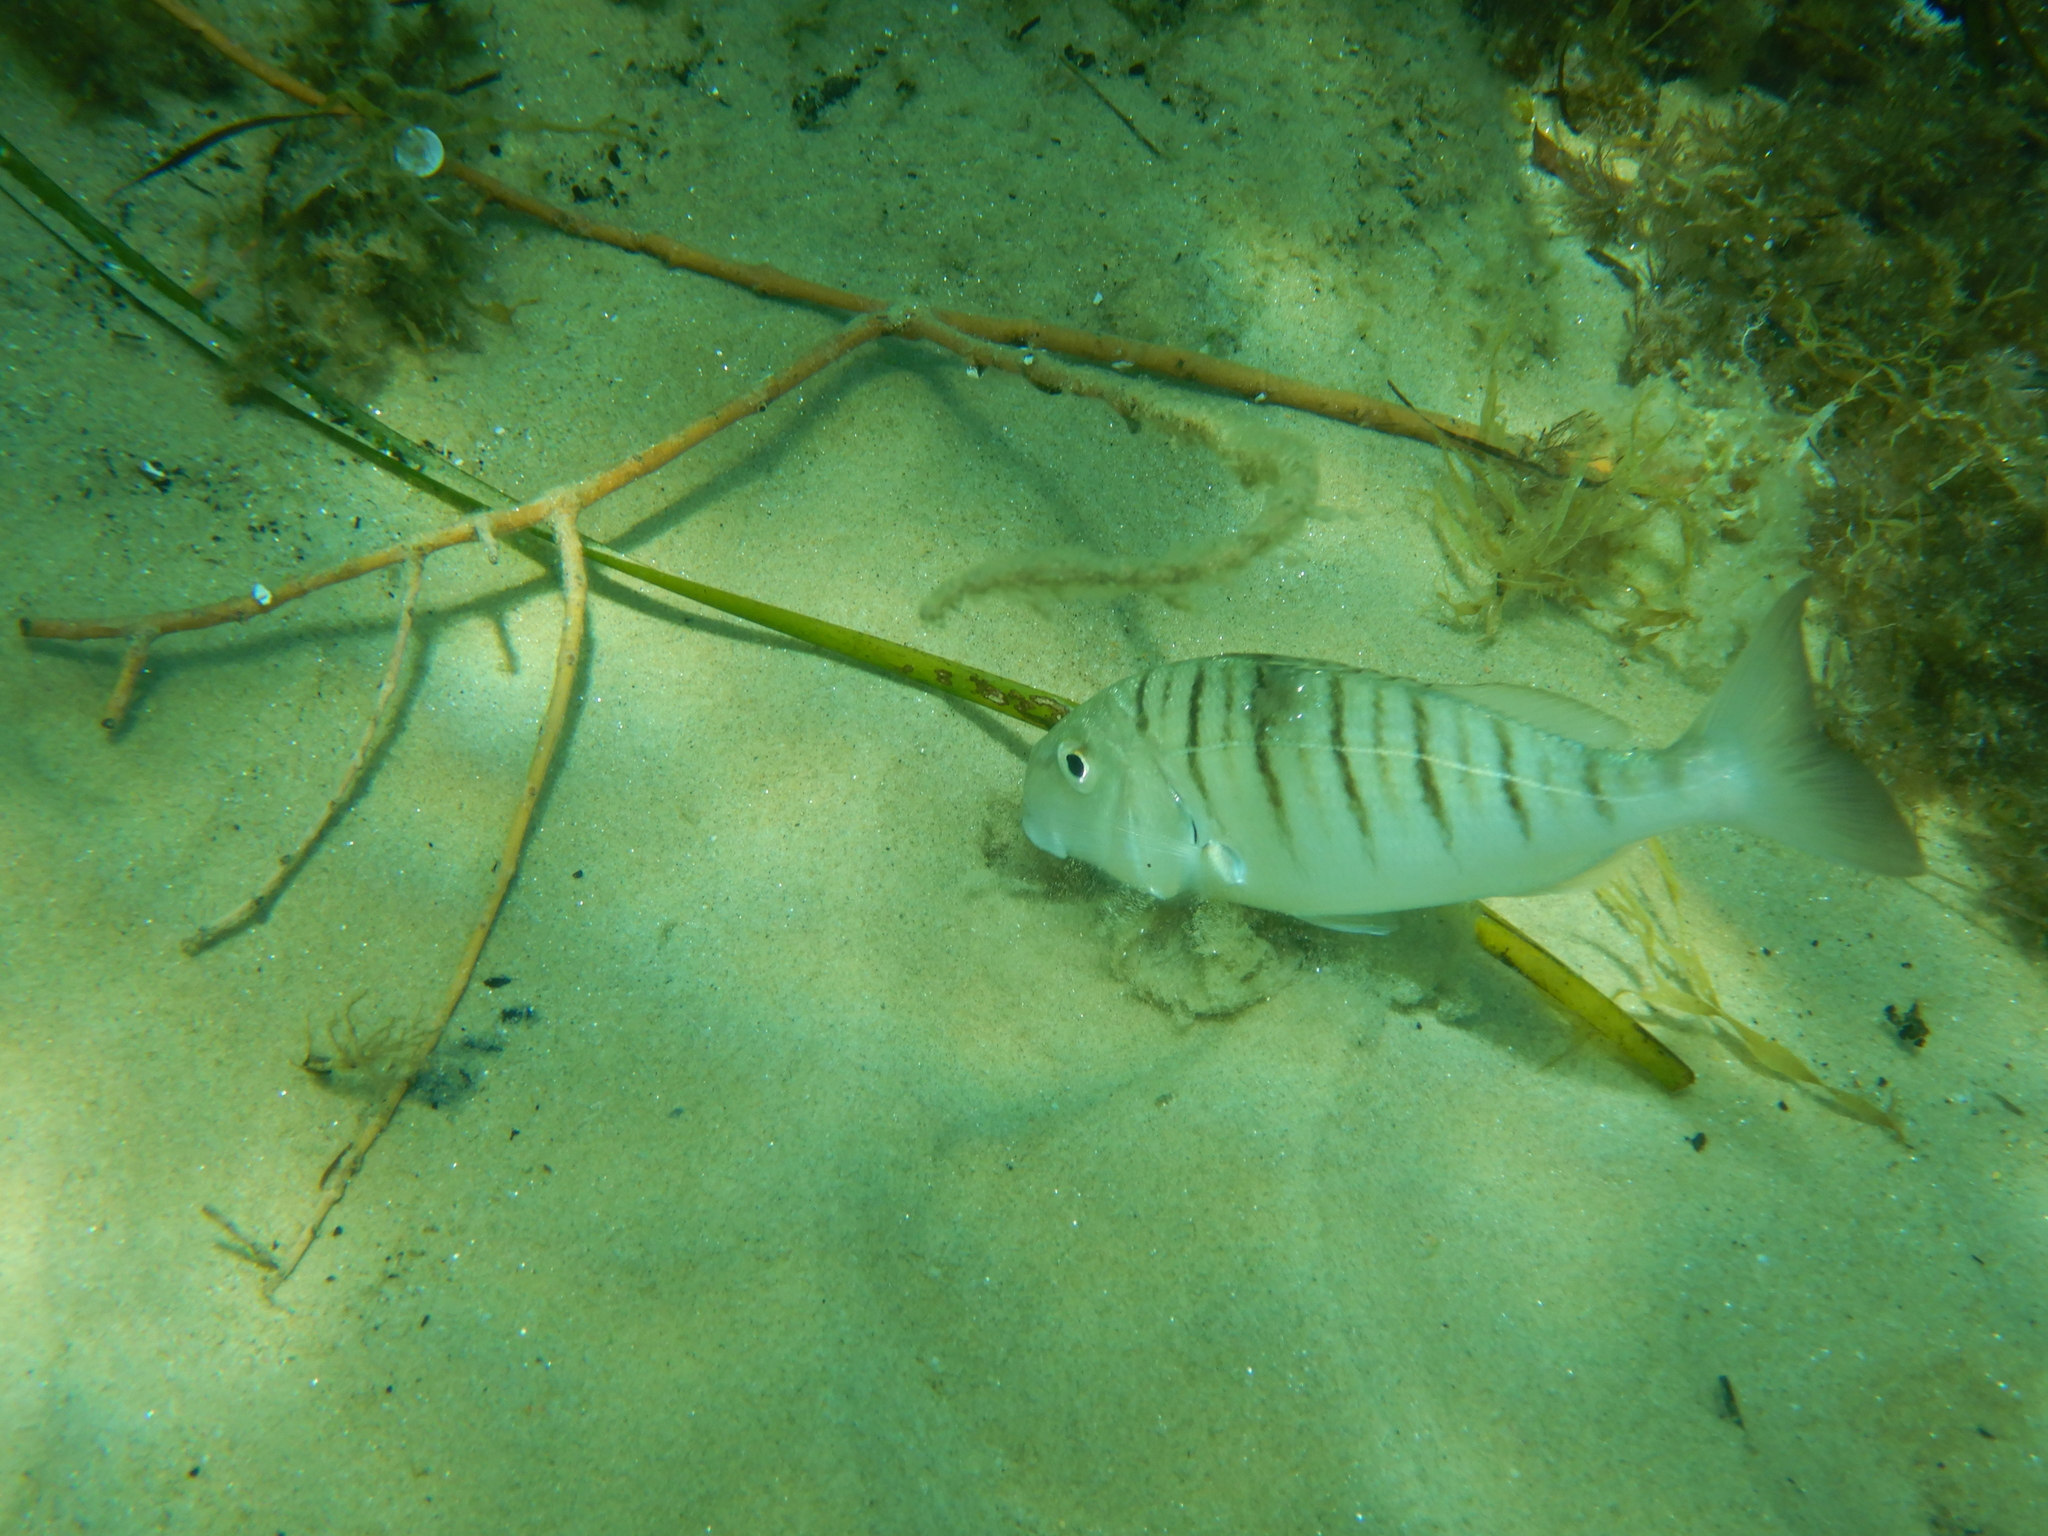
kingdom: Animalia
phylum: Chordata
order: Perciformes
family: Sparidae
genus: Lithognathus
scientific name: Lithognathus mormyrus
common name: Sand steenbras
